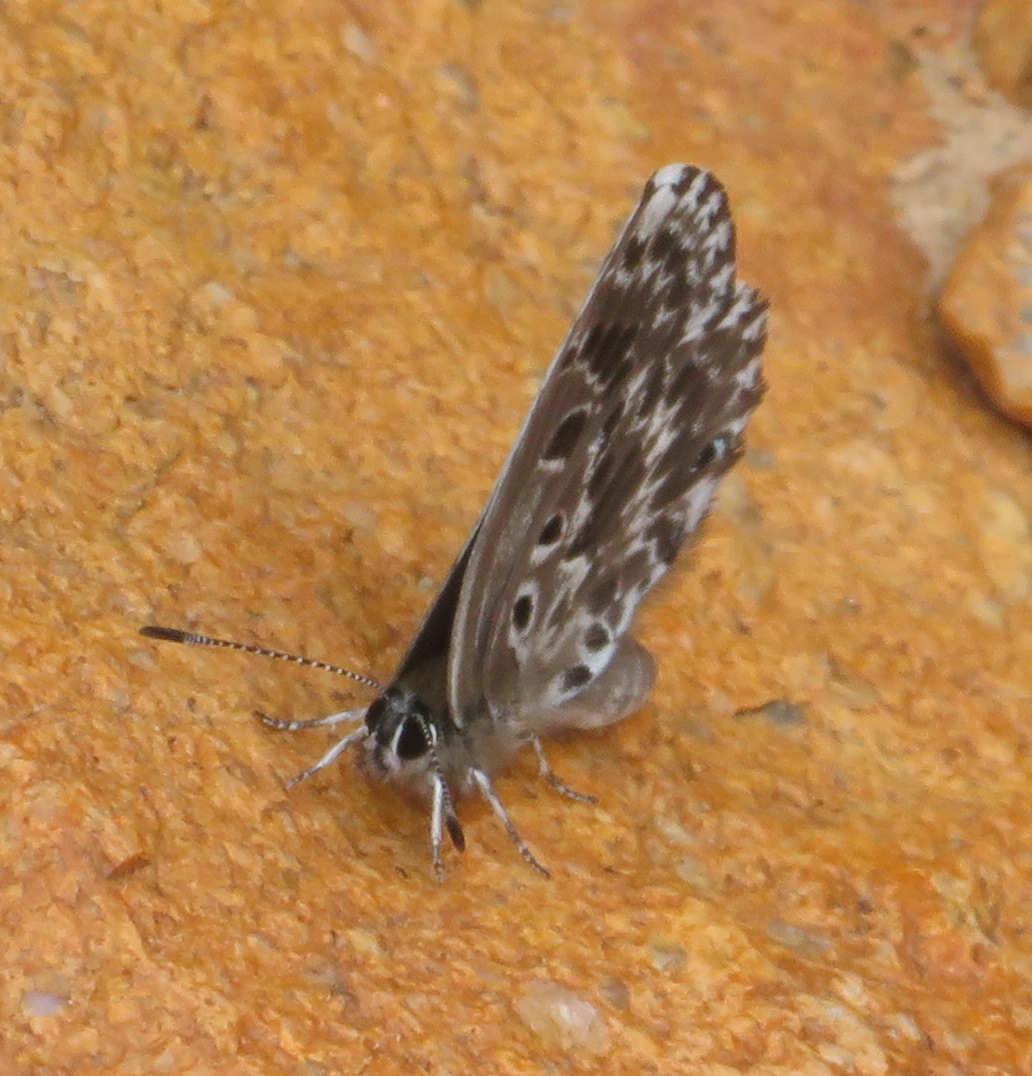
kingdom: Animalia
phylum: Arthropoda
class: Insecta
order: Lepidoptera
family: Lycaenidae
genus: Lepidochrysops
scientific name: Lepidochrysops robertsoni
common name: Robertson's blue
